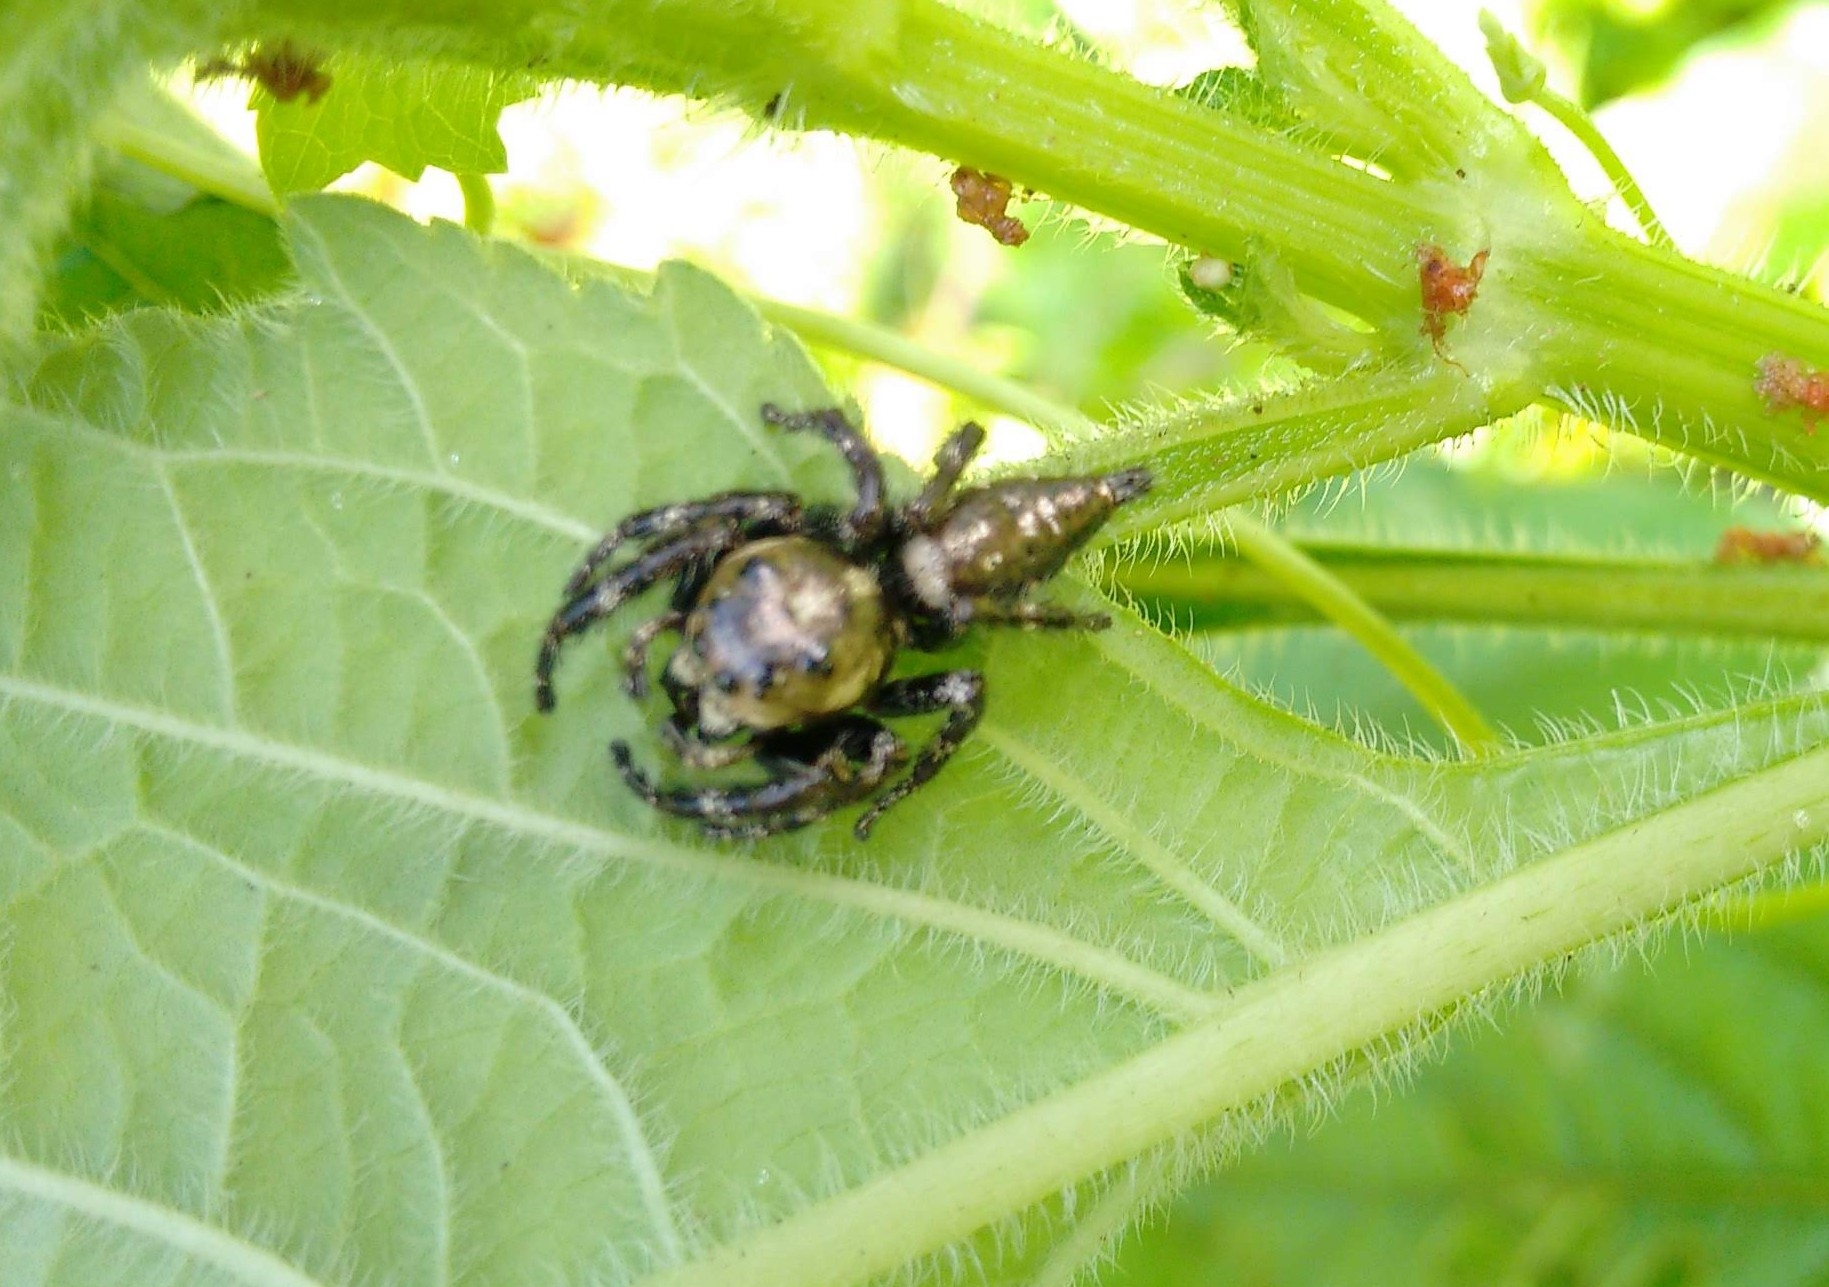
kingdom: Animalia
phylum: Arthropoda
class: Arachnida
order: Araneae
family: Salticidae
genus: Hyllus
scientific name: Hyllus semicupreus
